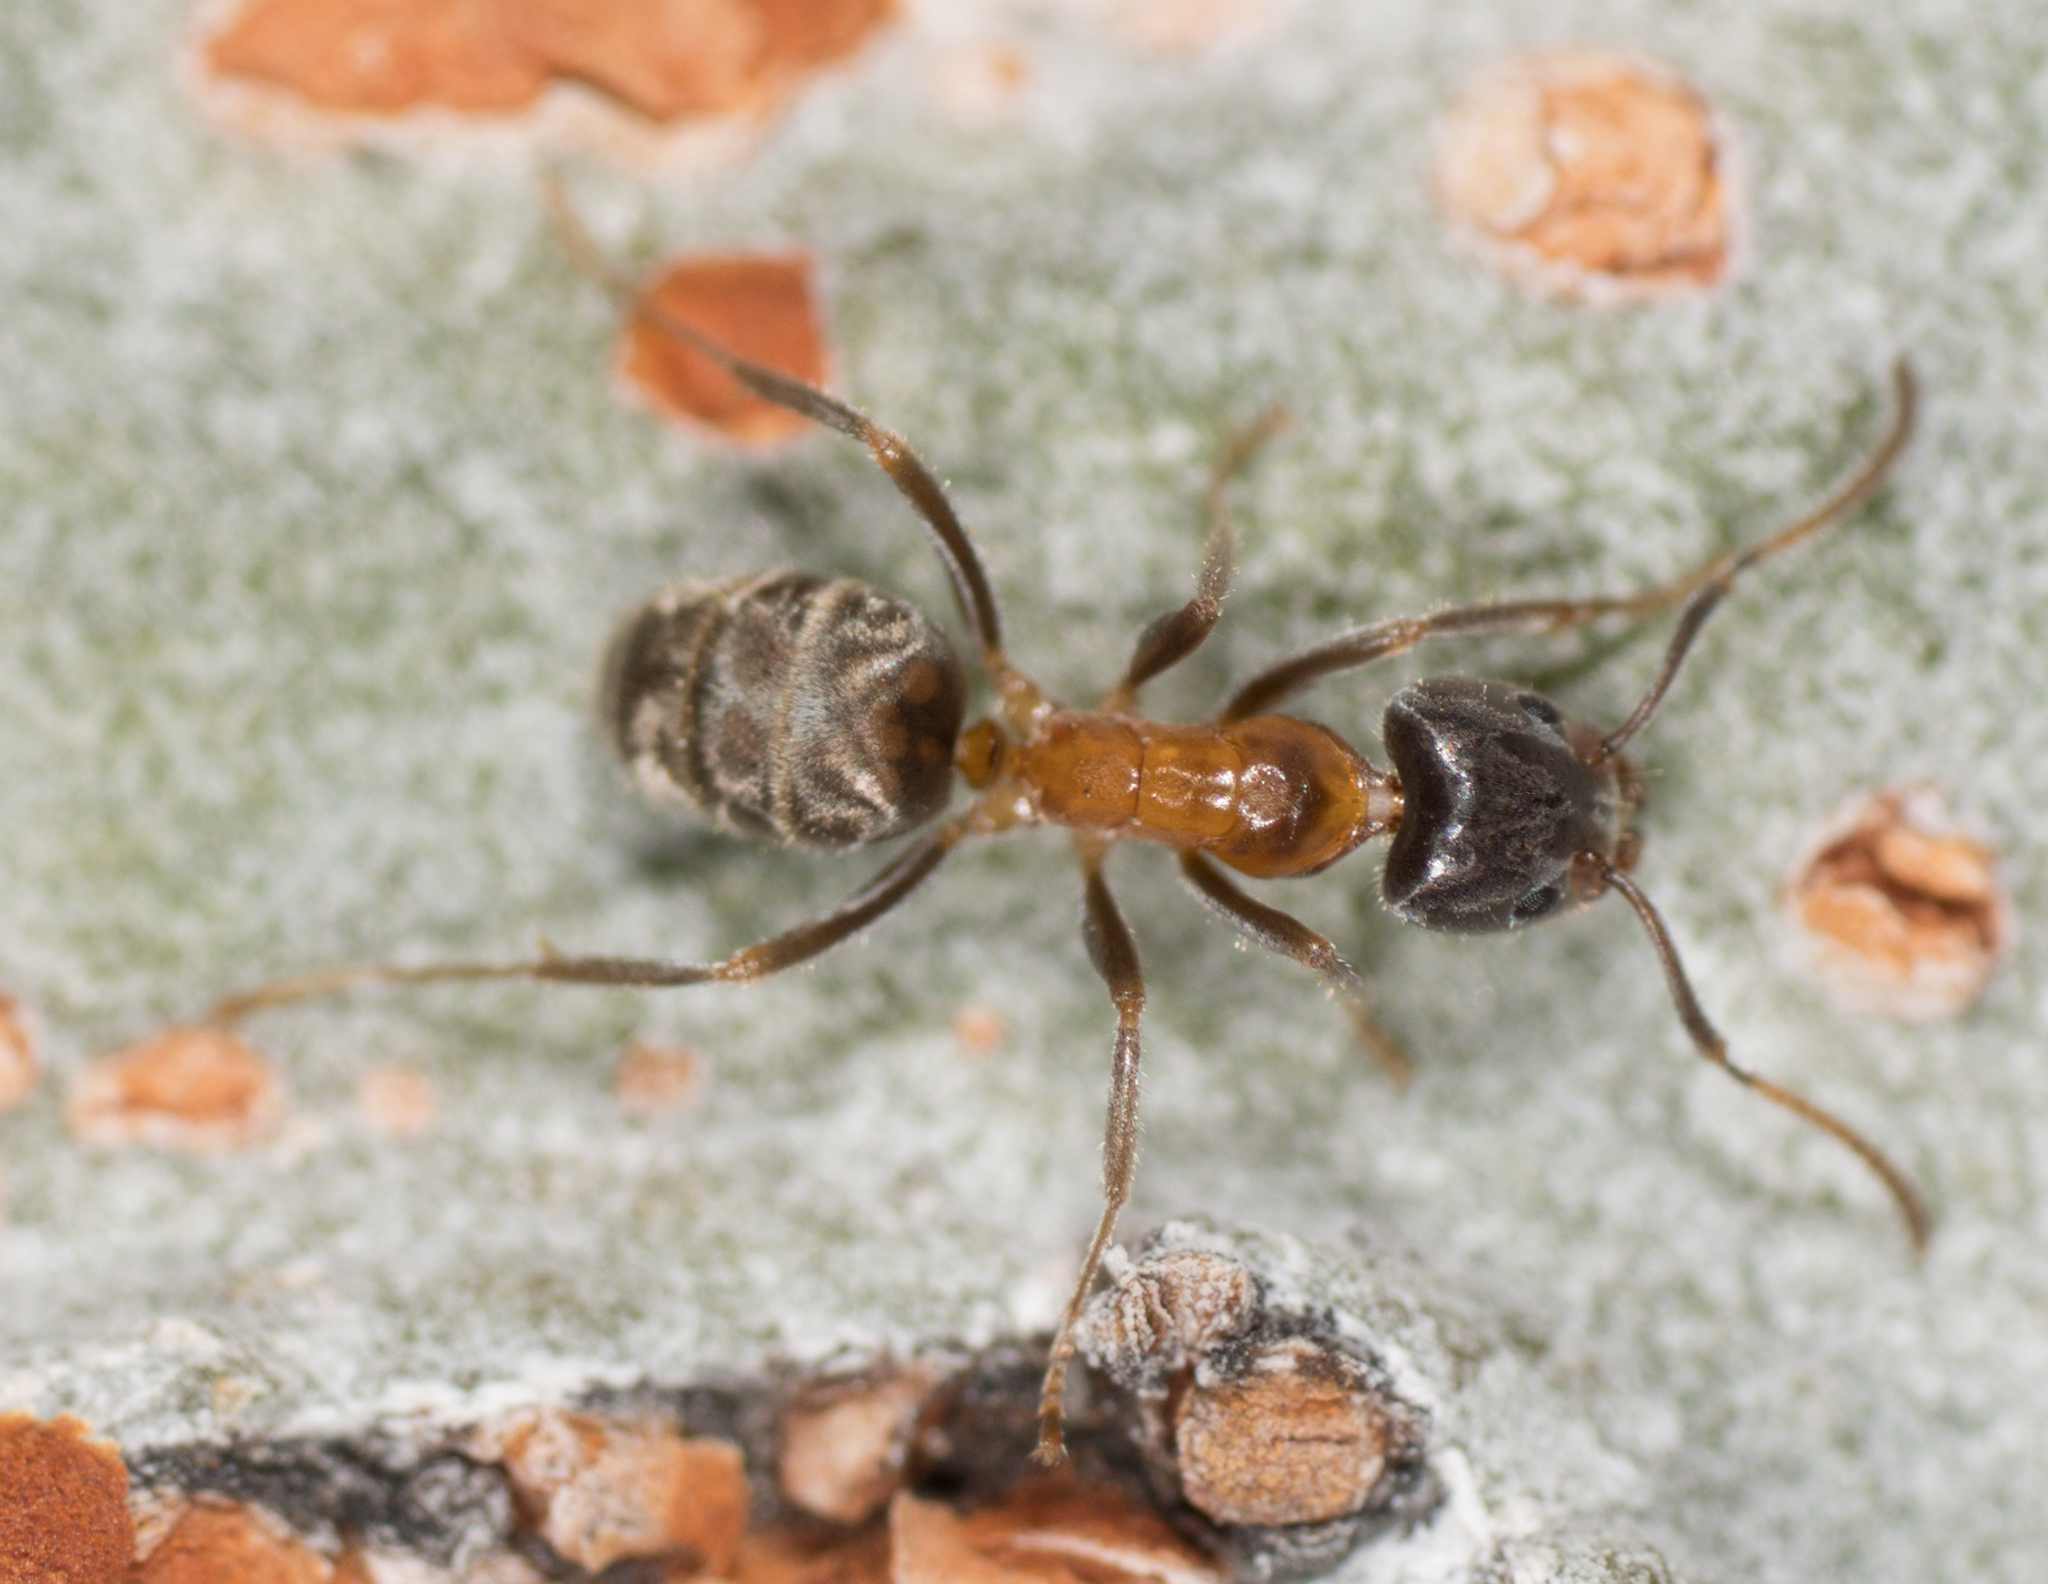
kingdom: Animalia
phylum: Arthropoda
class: Insecta
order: Hymenoptera
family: Formicidae
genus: Liometopum
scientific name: Liometopum occidentale
